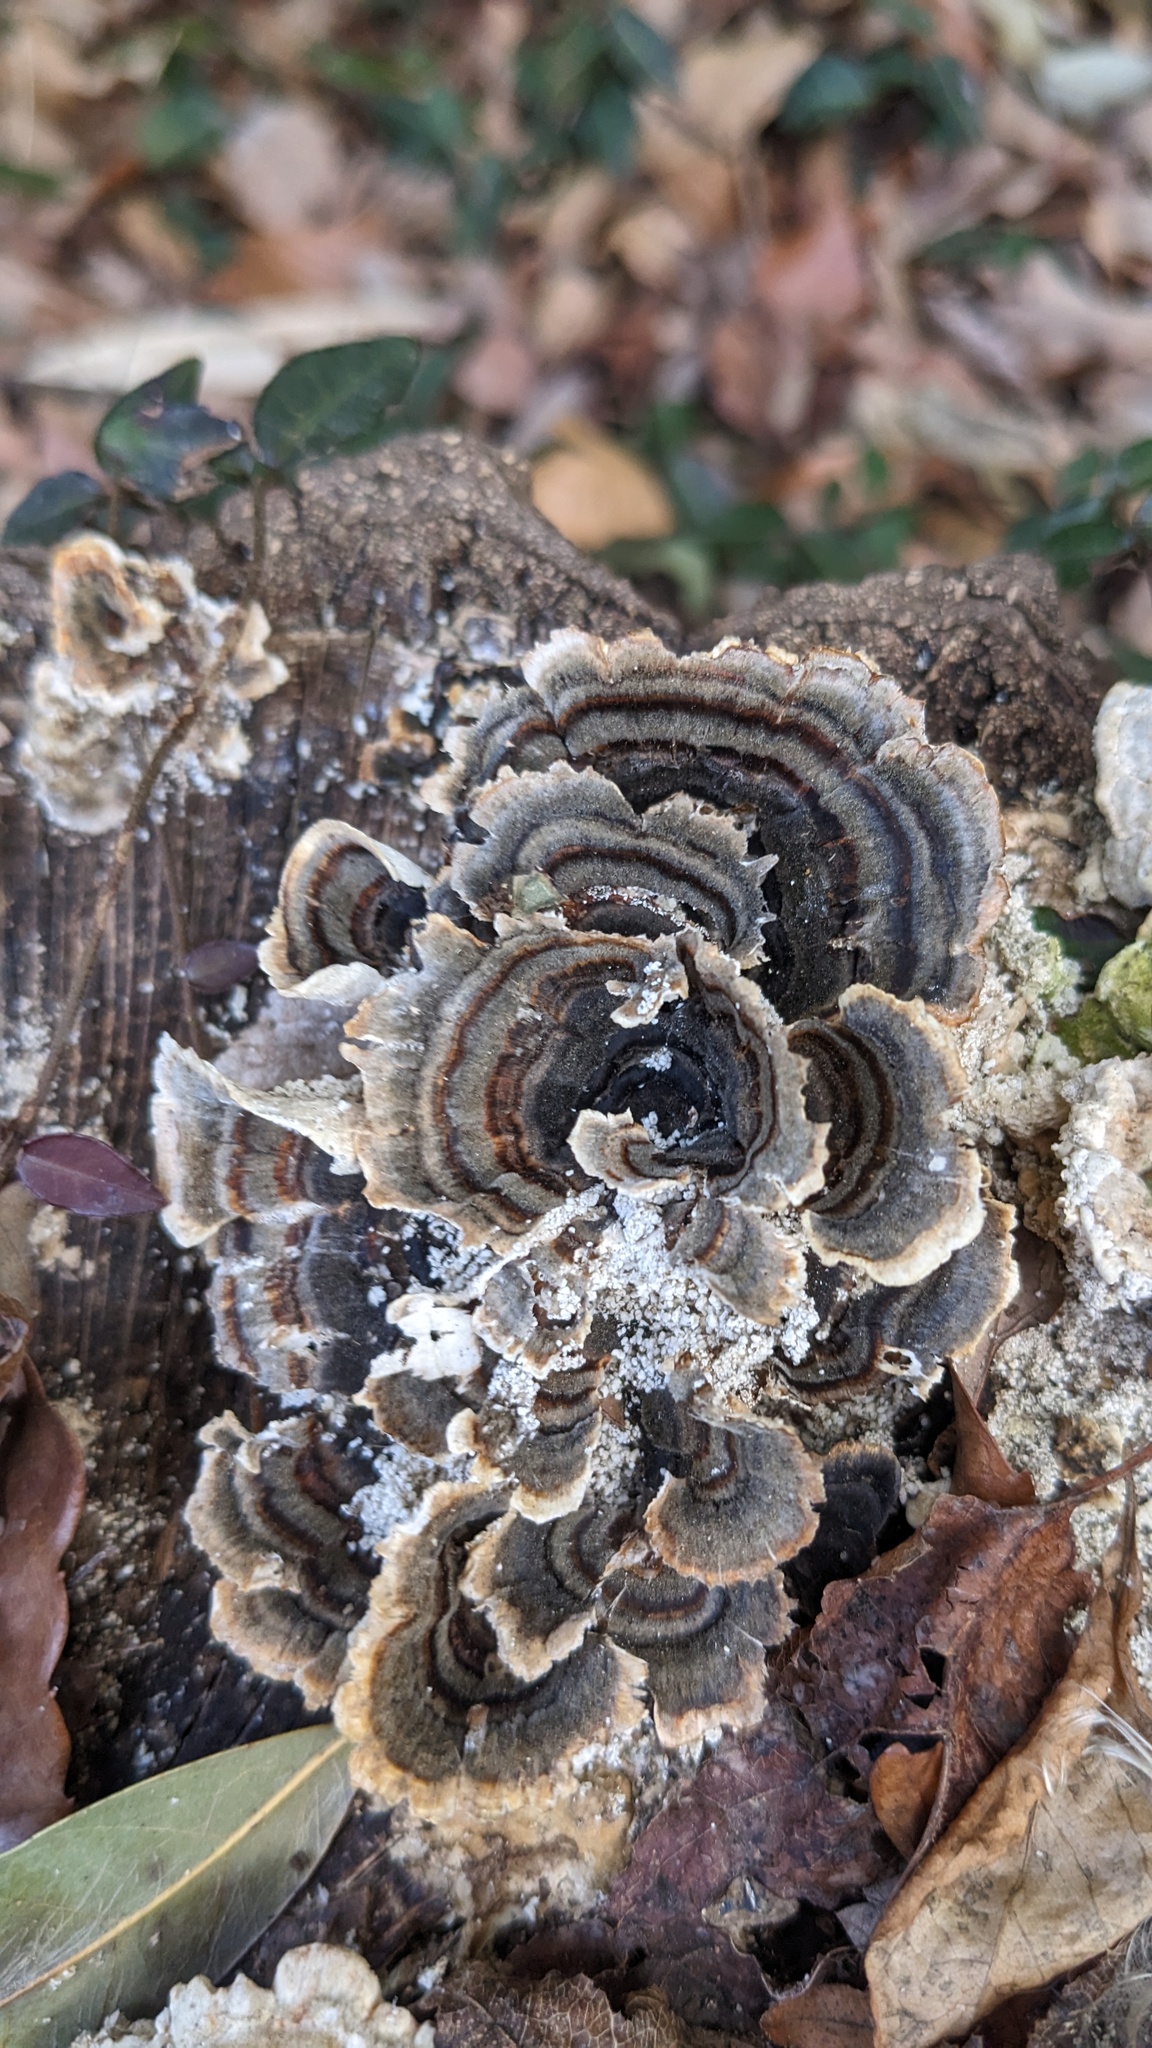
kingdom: Fungi
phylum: Basidiomycota
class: Agaricomycetes
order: Polyporales
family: Polyporaceae
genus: Trametes
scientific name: Trametes versicolor
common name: Turkeytail
